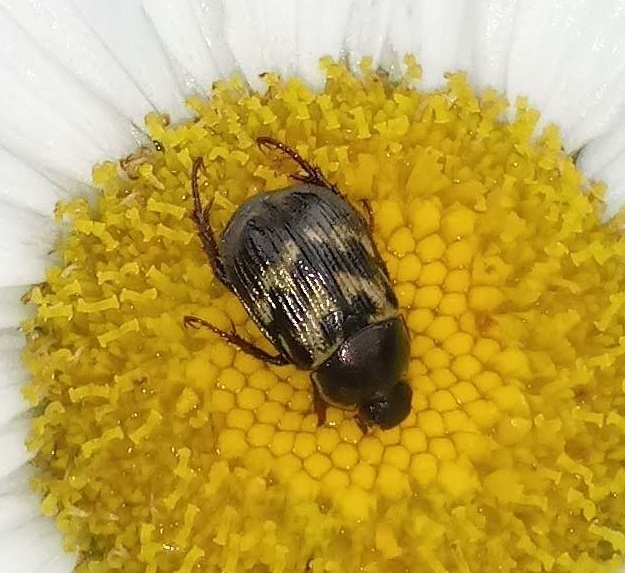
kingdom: Animalia
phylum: Arthropoda
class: Insecta
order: Coleoptera
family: Scarabaeidae
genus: Exomala
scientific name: Exomala orientalis
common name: Oriental beetle
